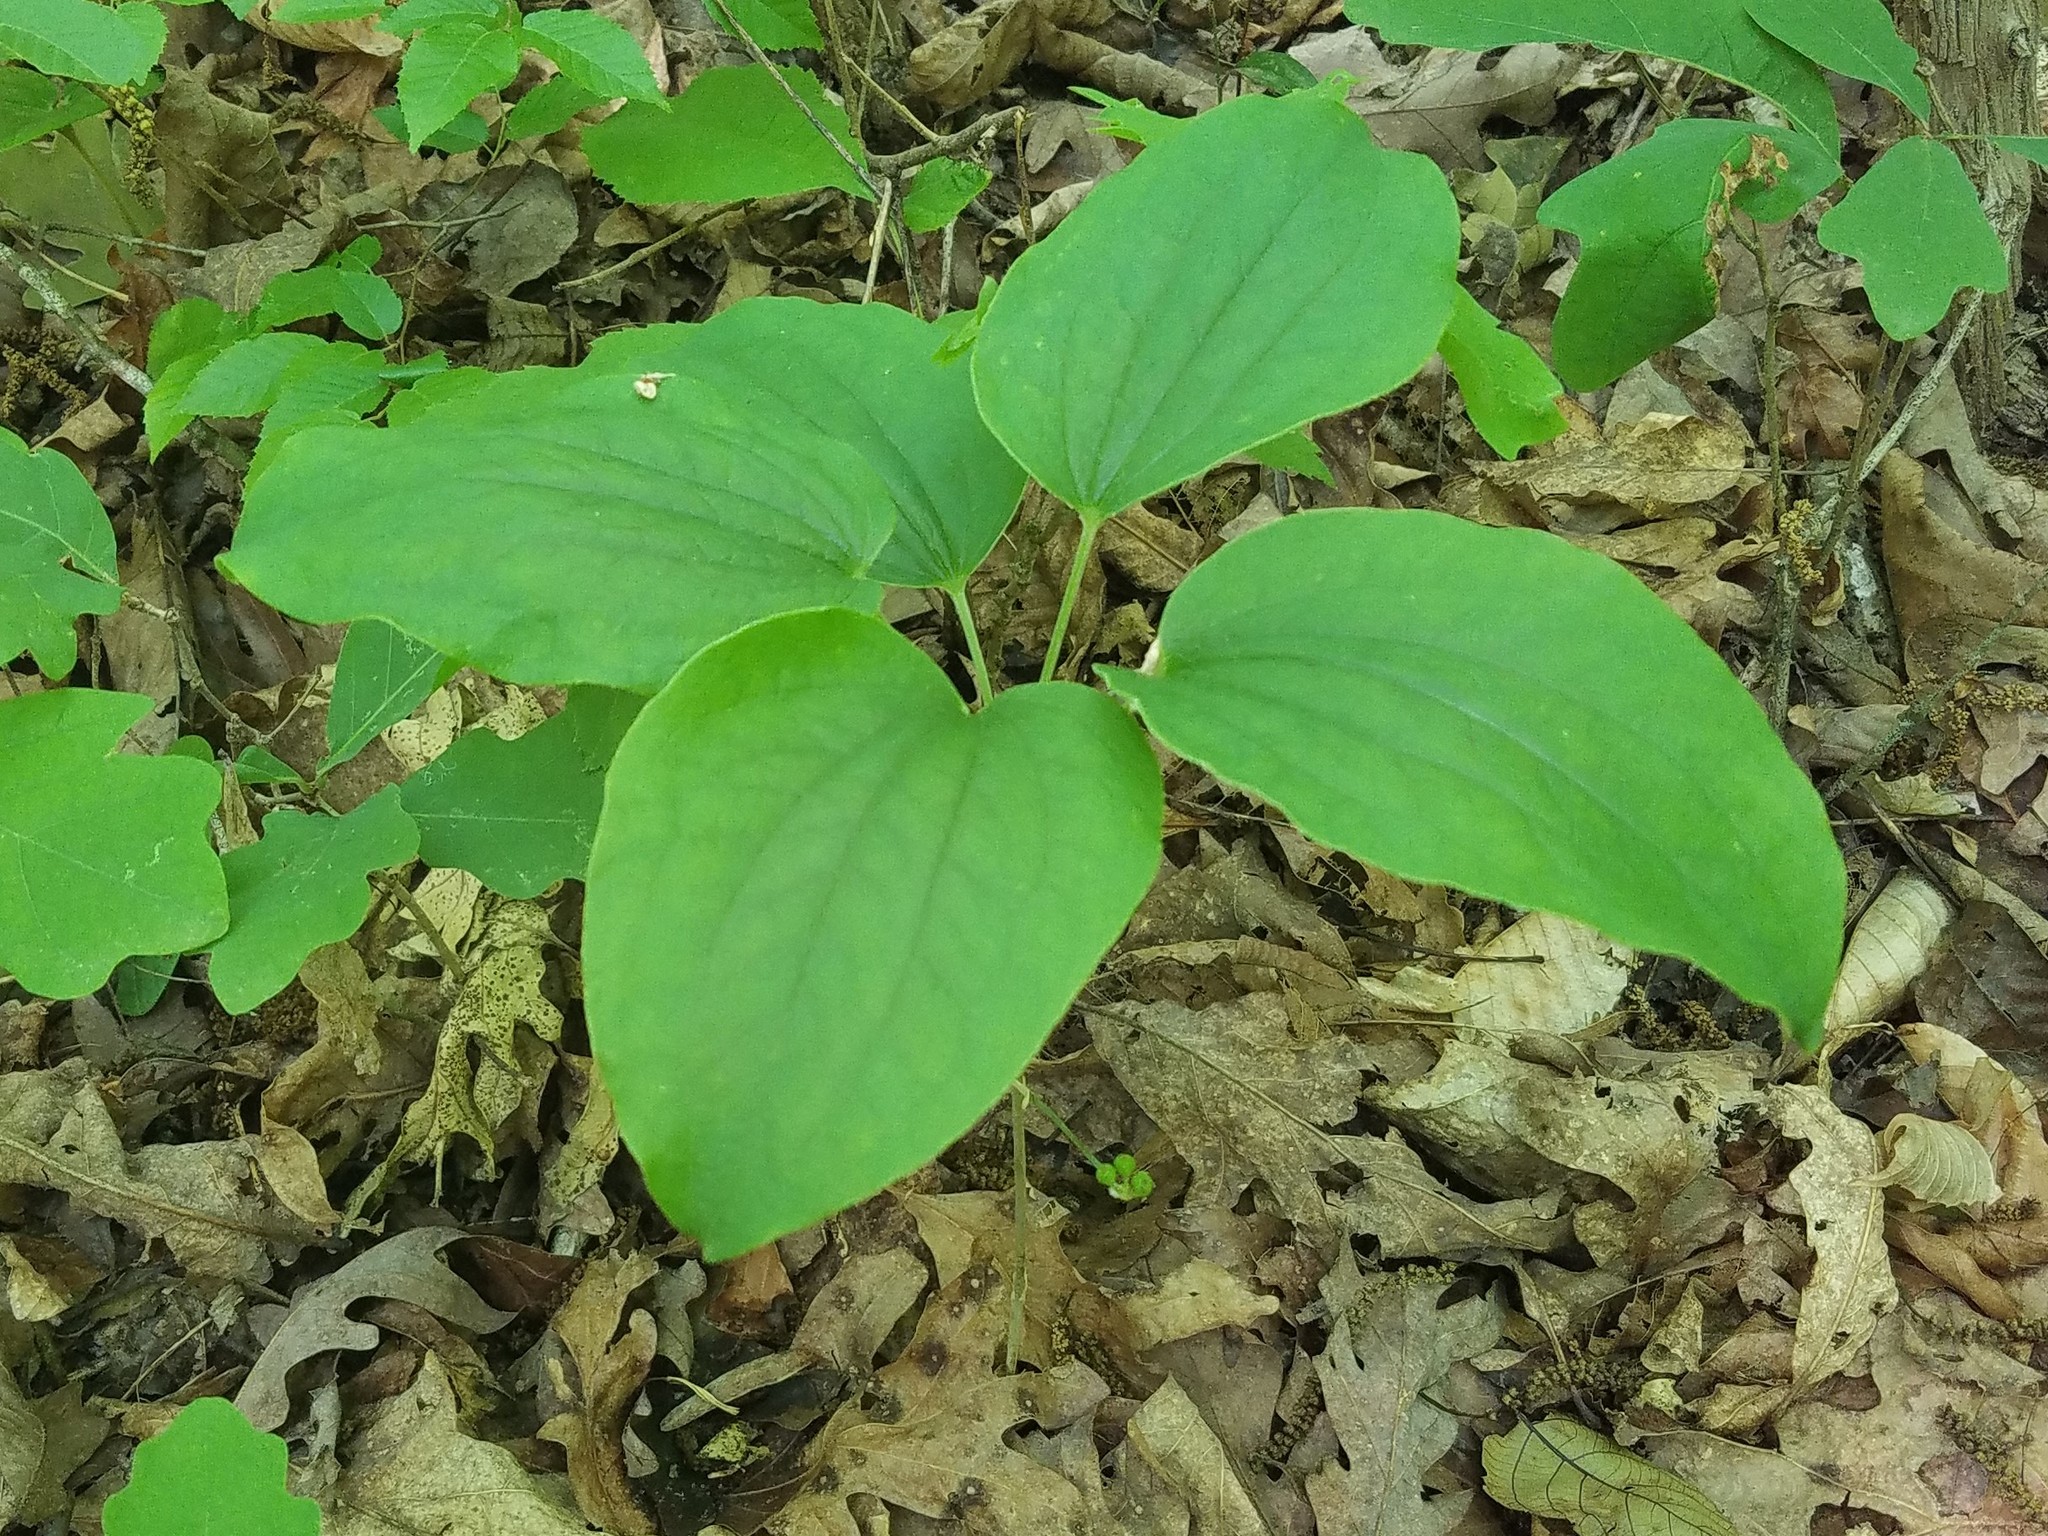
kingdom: Plantae
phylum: Tracheophyta
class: Liliopsida
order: Liliales
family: Smilacaceae
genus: Smilax
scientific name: Smilax hugeri
